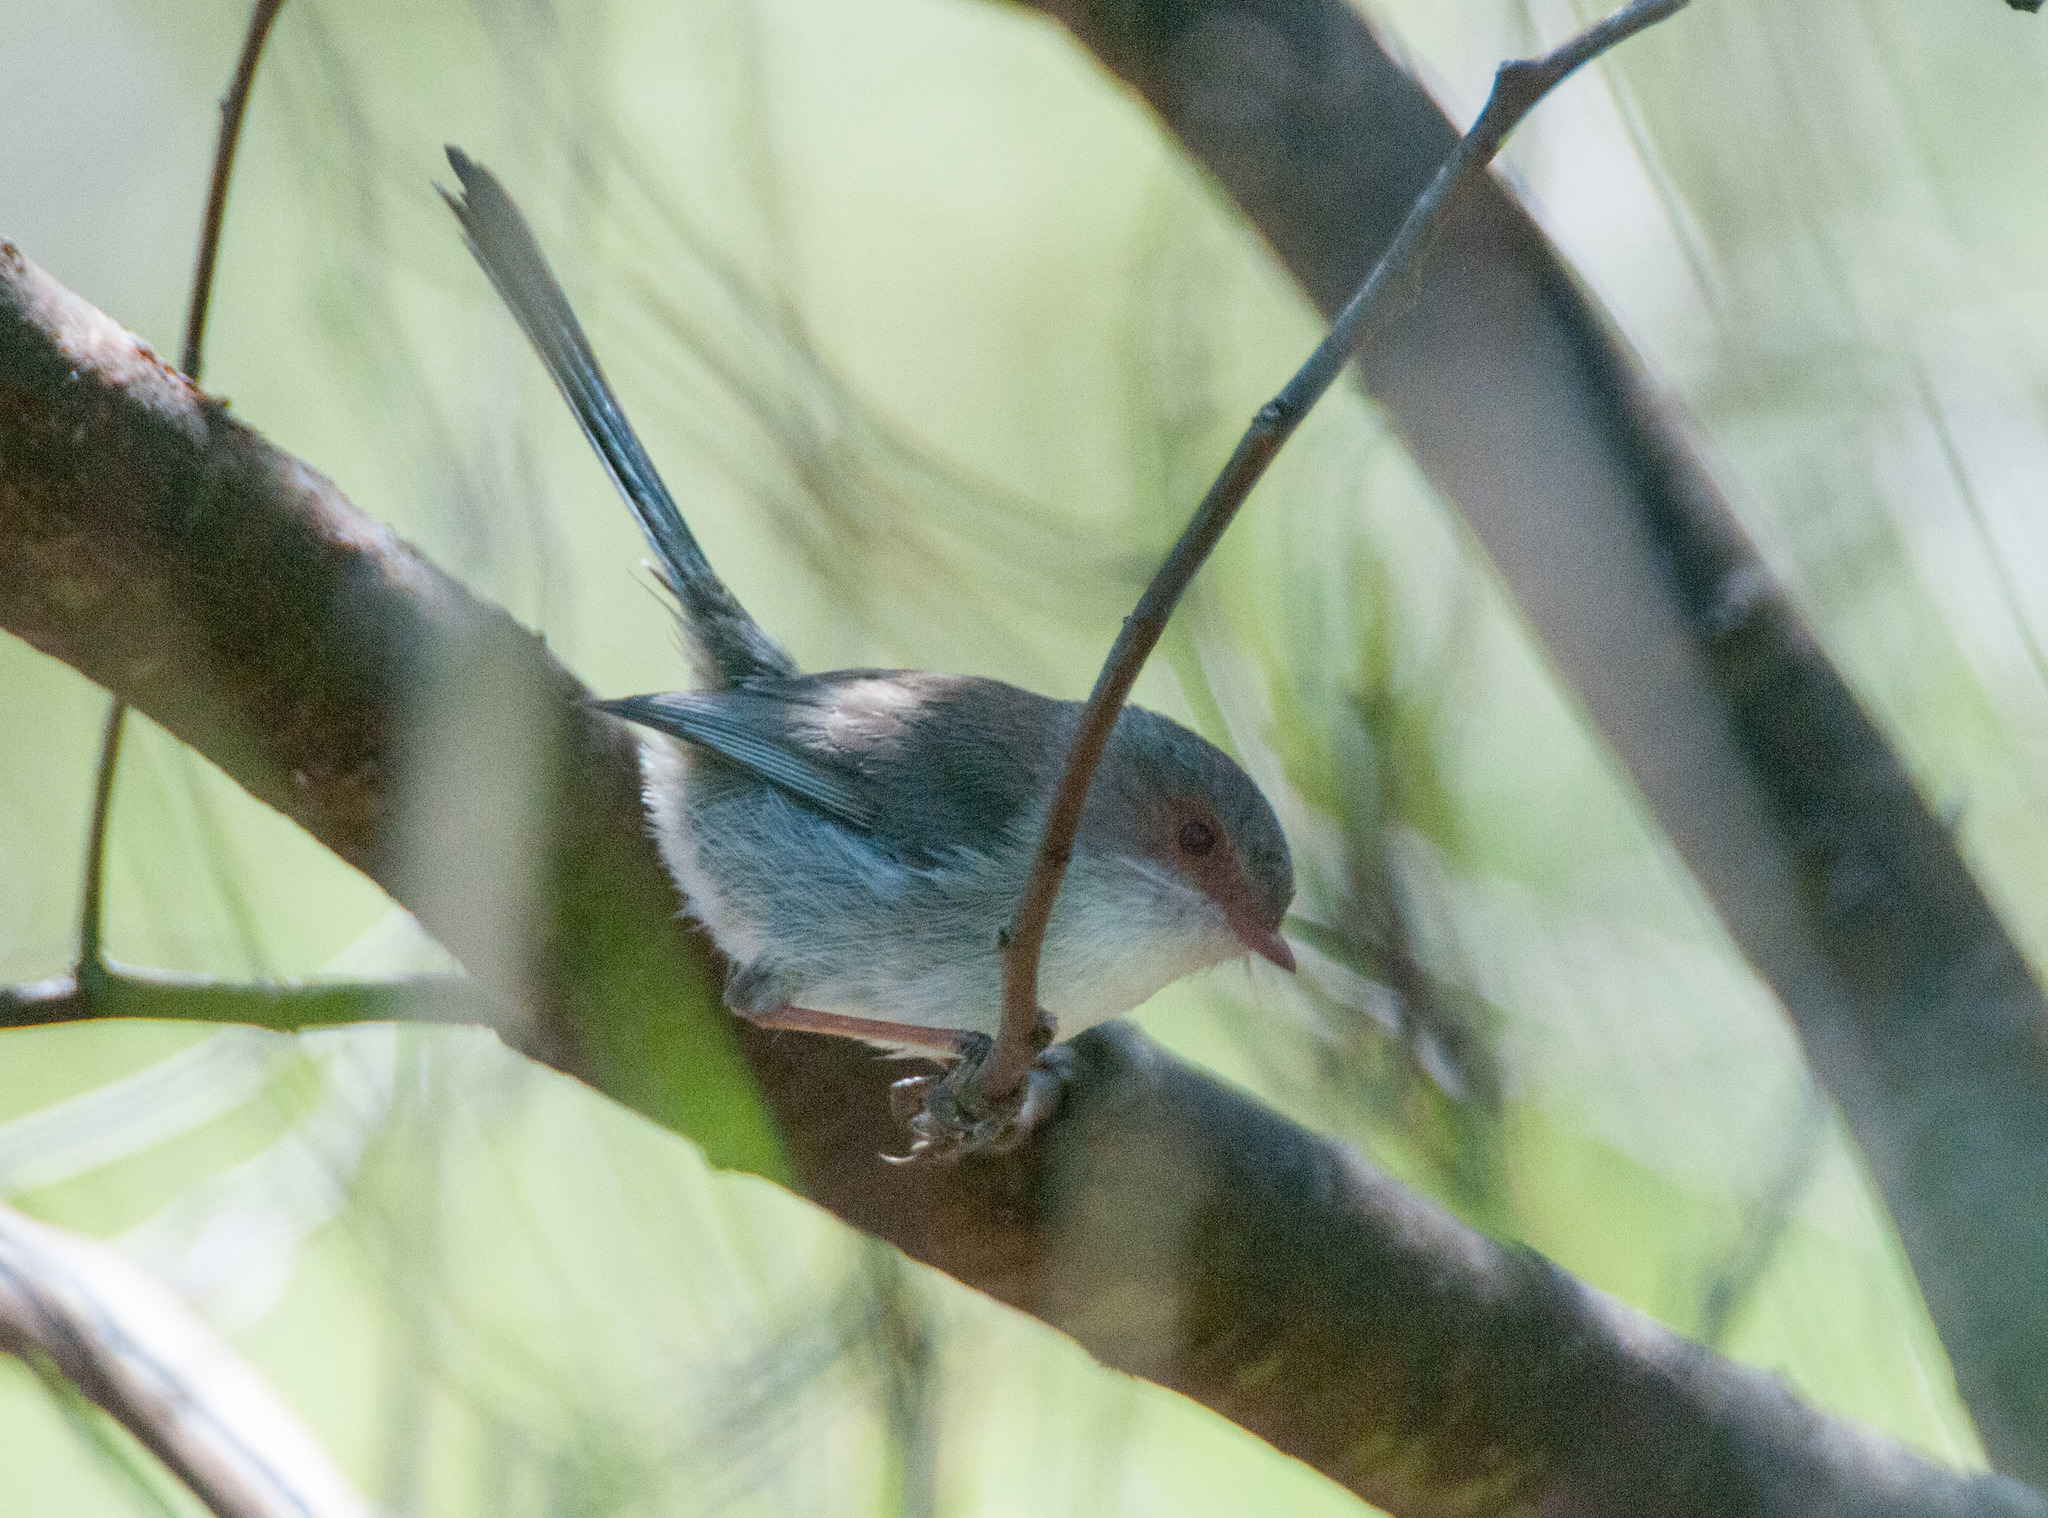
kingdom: Animalia
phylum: Chordata
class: Aves
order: Passeriformes
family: Maluridae
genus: Malurus
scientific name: Malurus cyaneus
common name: Superb fairywren
